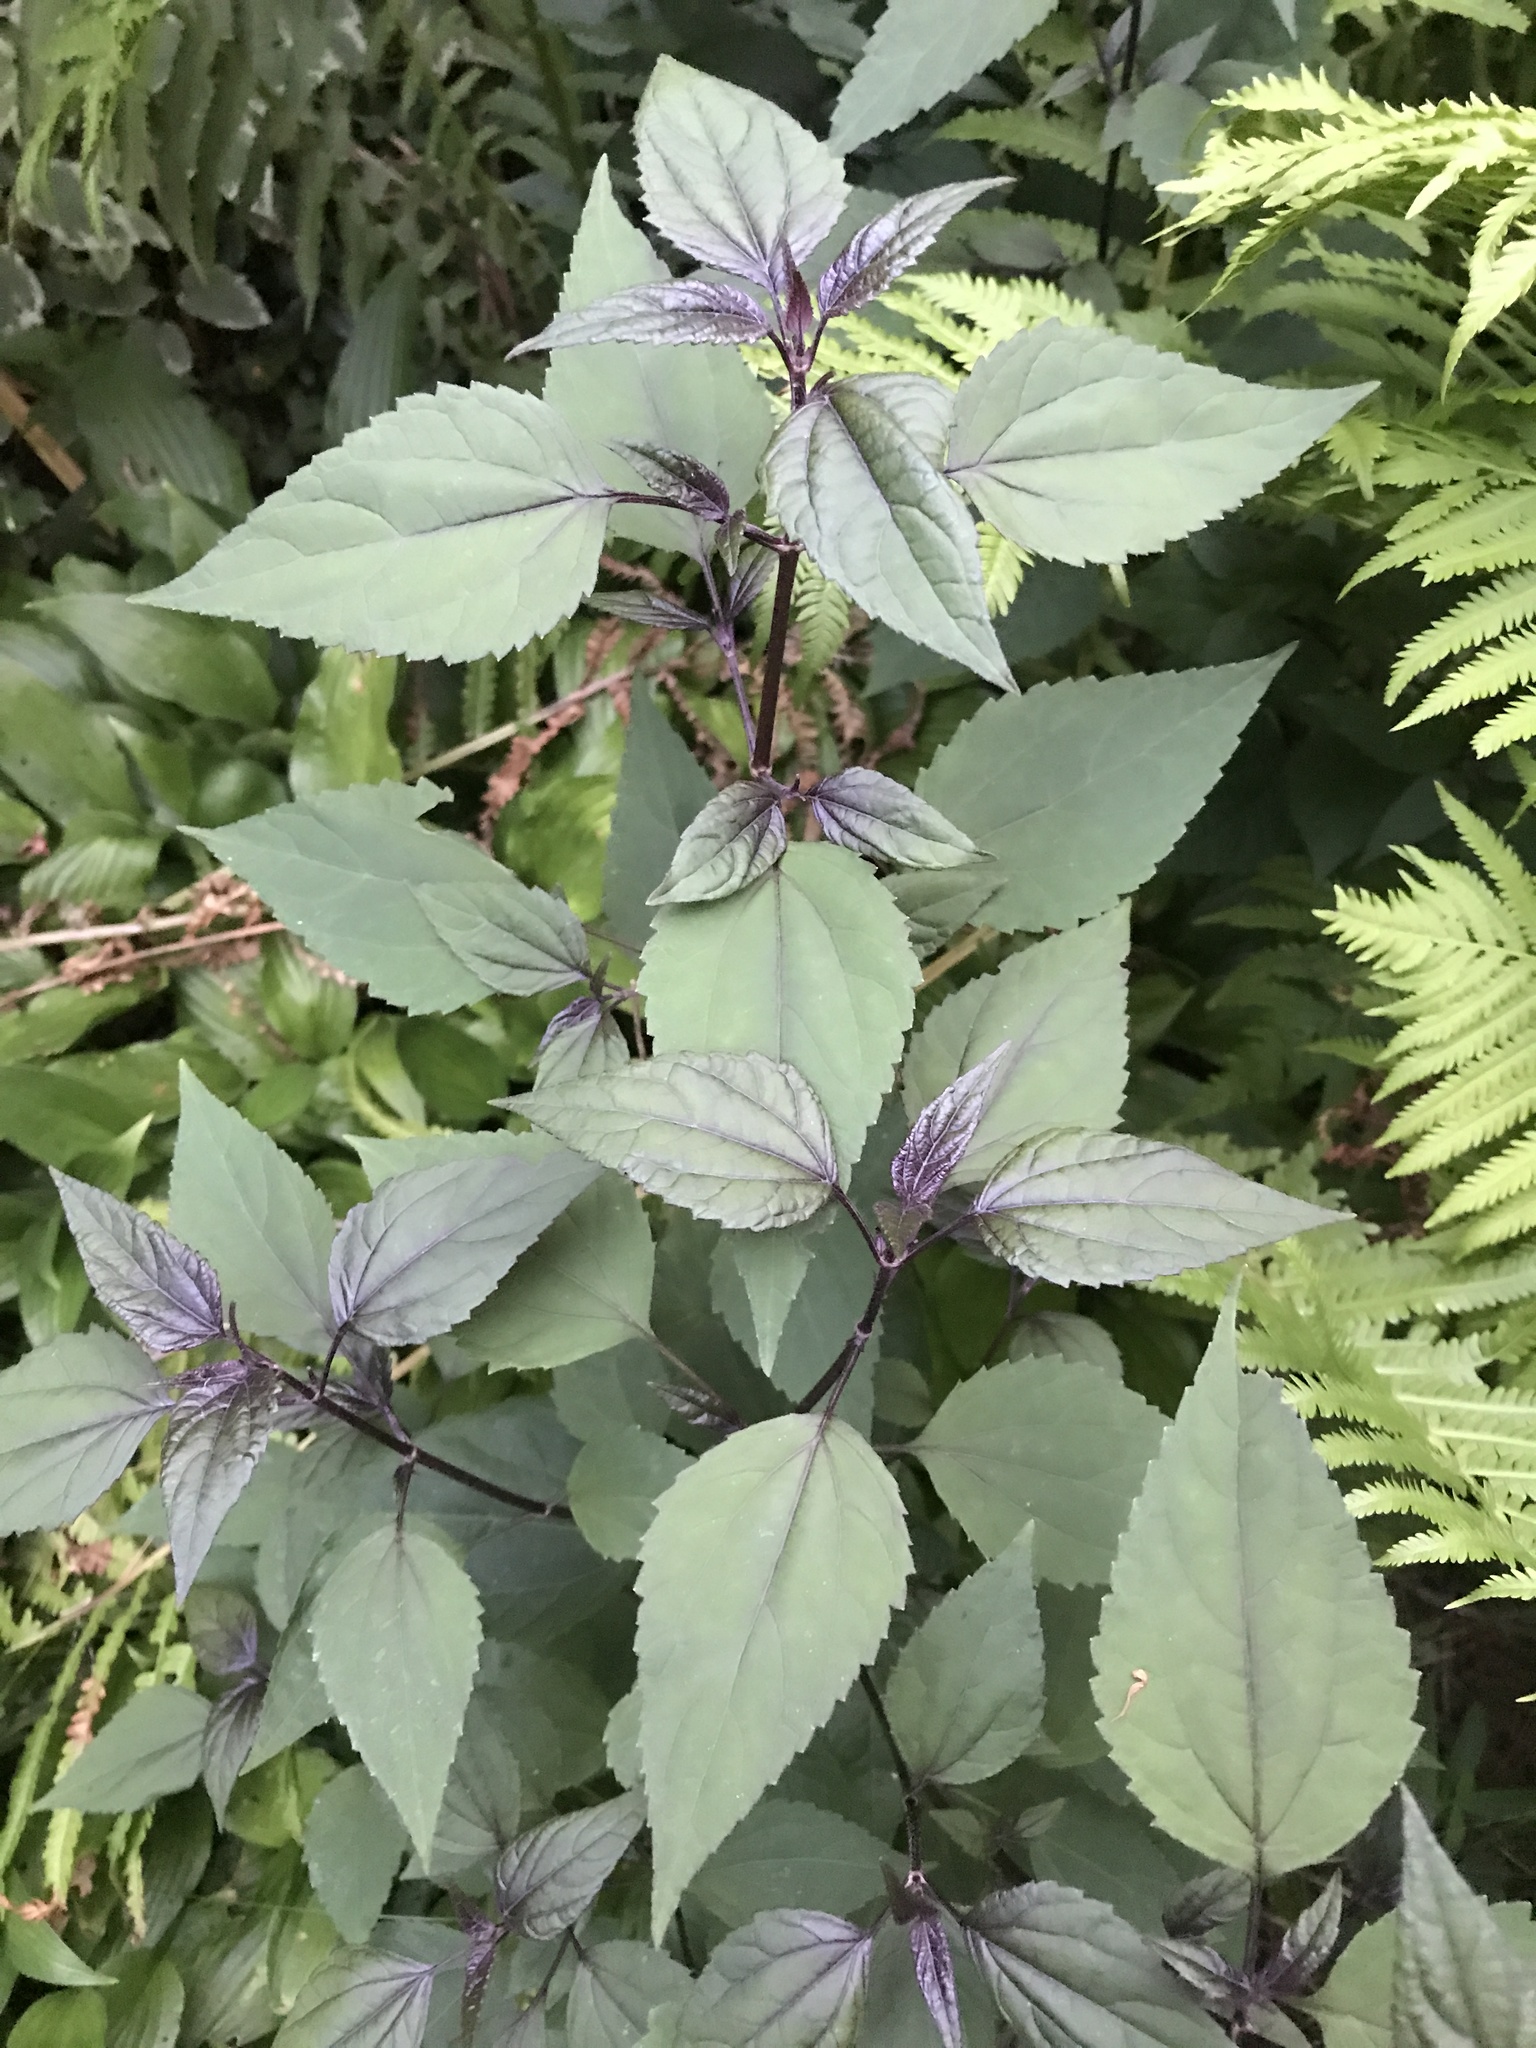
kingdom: Plantae
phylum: Tracheophyta
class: Magnoliopsida
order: Asterales
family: Asteraceae
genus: Ageratina
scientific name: Ageratina altissima
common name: White snakeroot
